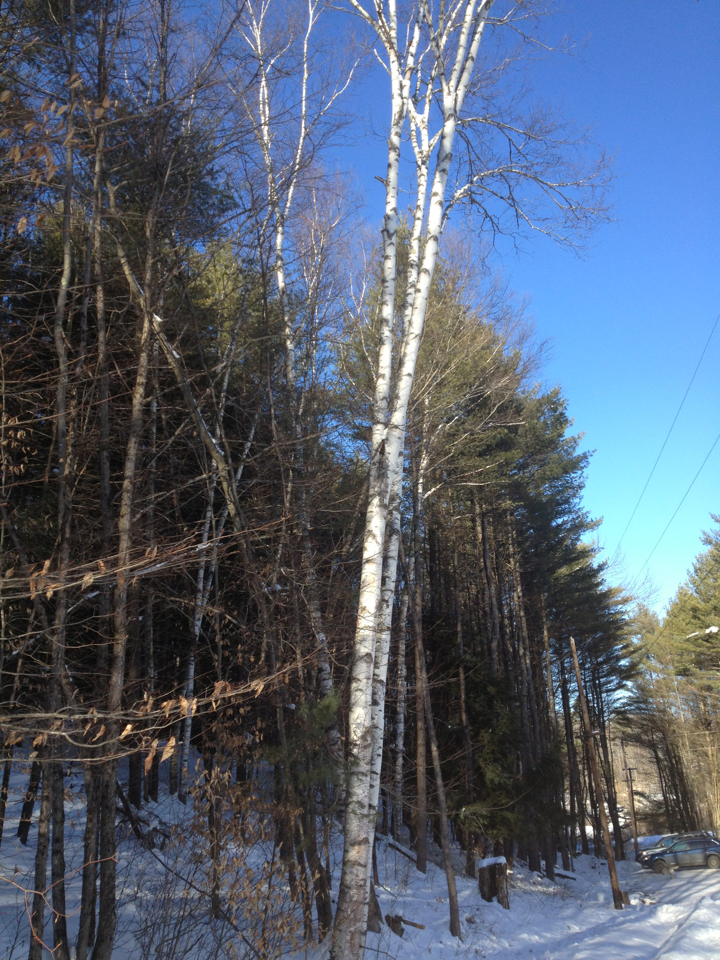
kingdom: Plantae
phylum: Tracheophyta
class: Magnoliopsida
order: Fagales
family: Betulaceae
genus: Betula
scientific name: Betula papyrifera
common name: Paper birch
